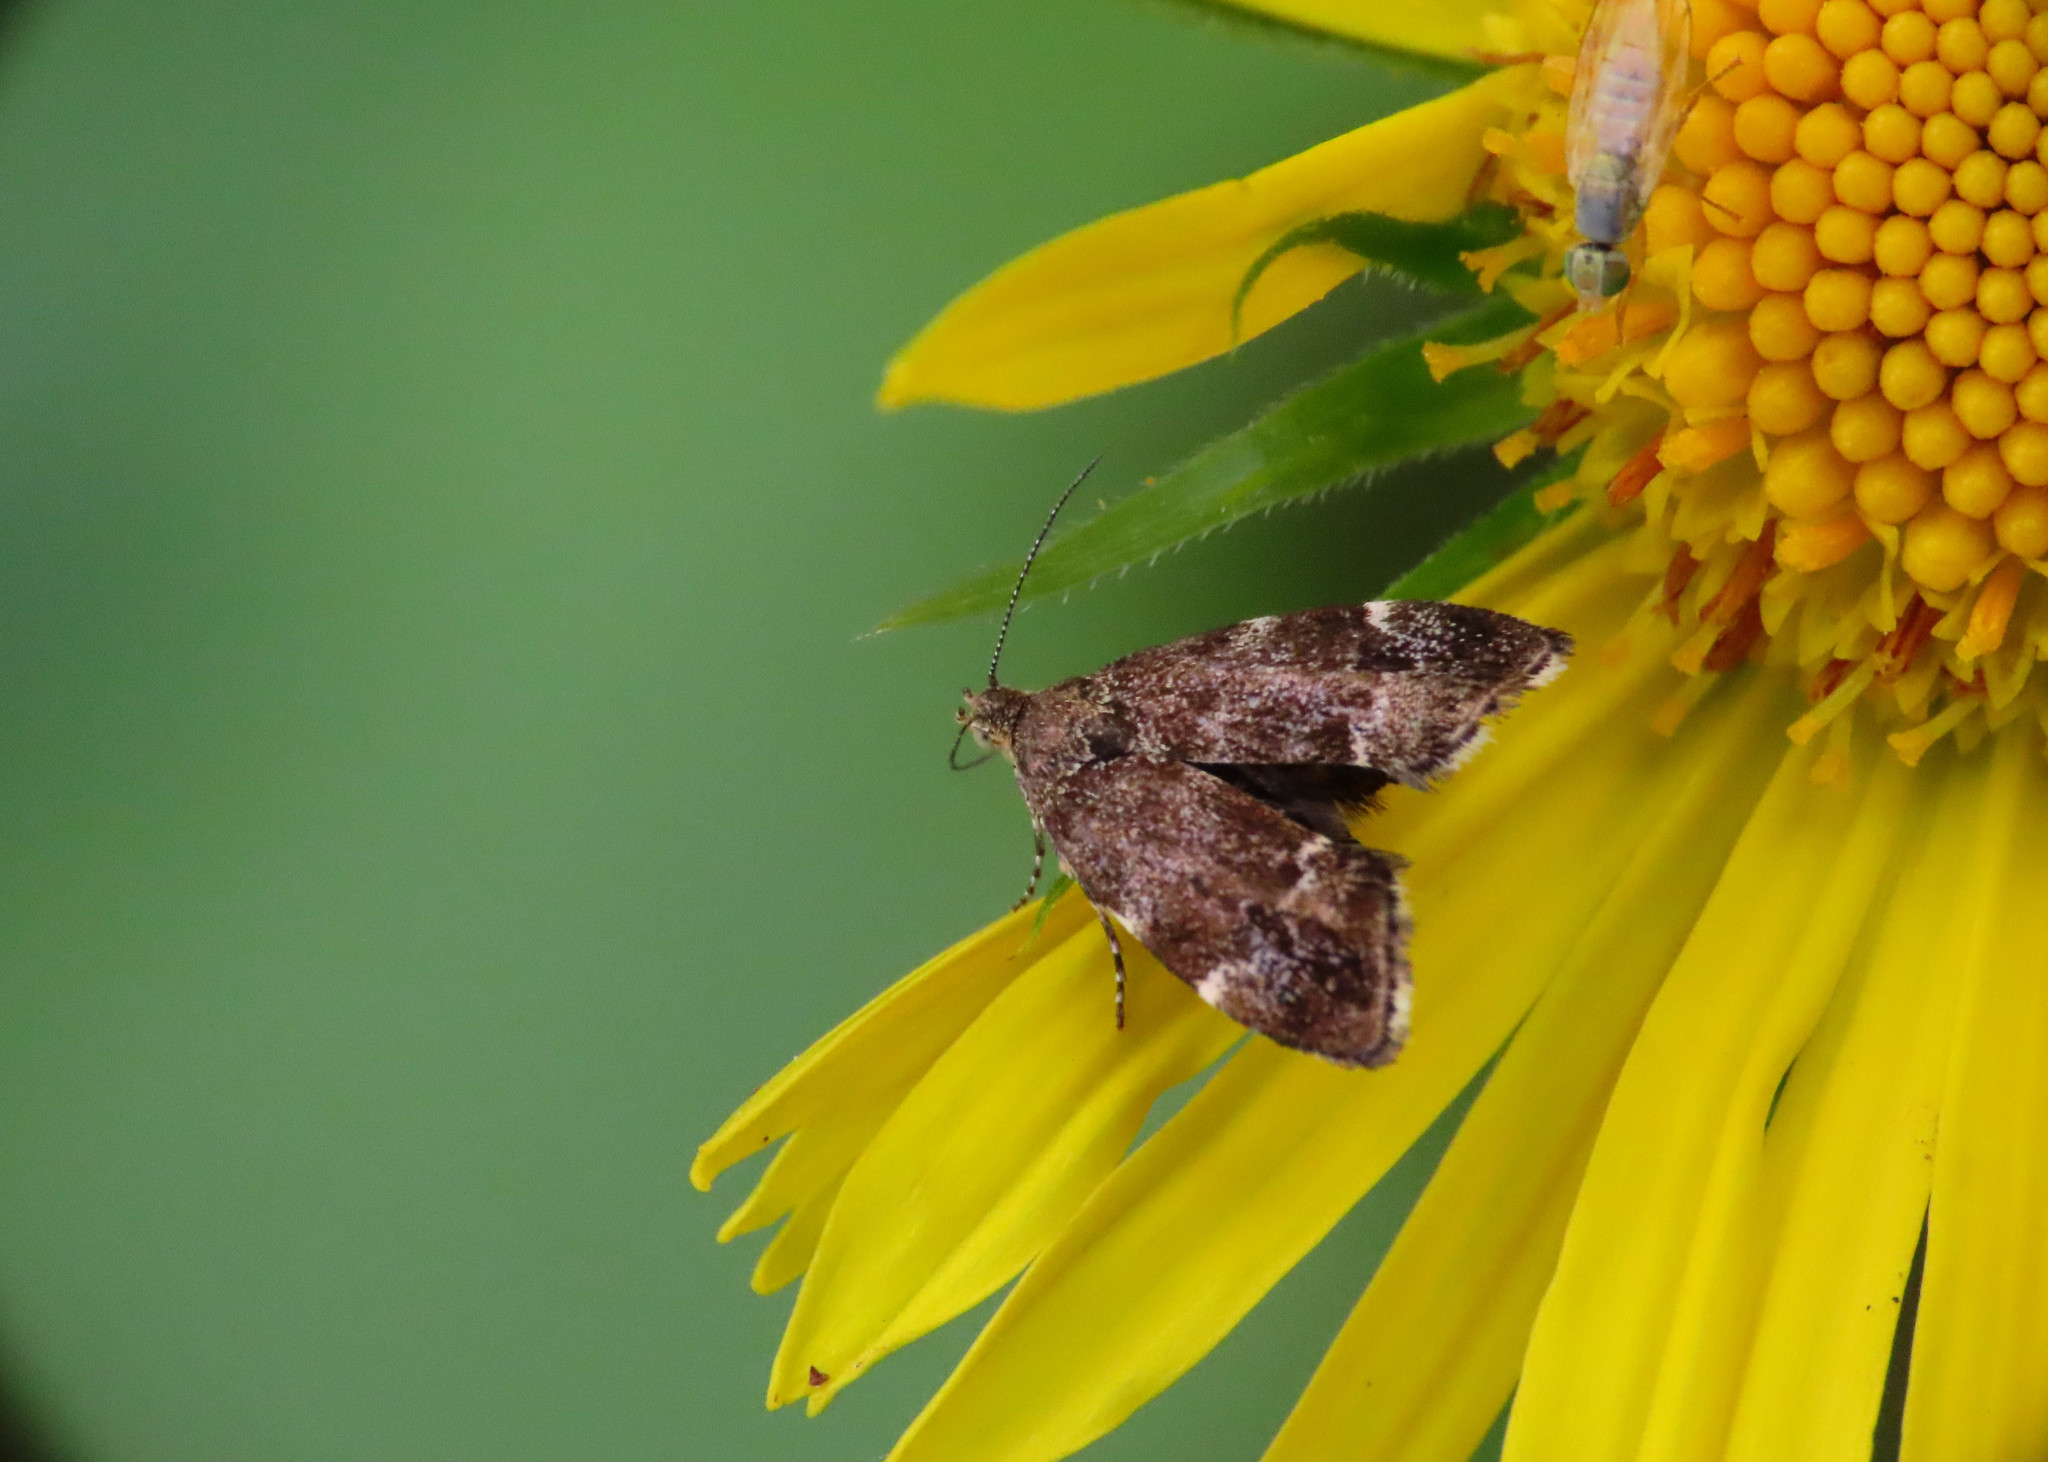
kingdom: Animalia
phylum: Arthropoda
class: Insecta
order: Lepidoptera
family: Choreutidae
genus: Anthophila
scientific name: Anthophila fabriciana
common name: Nettle-tap
